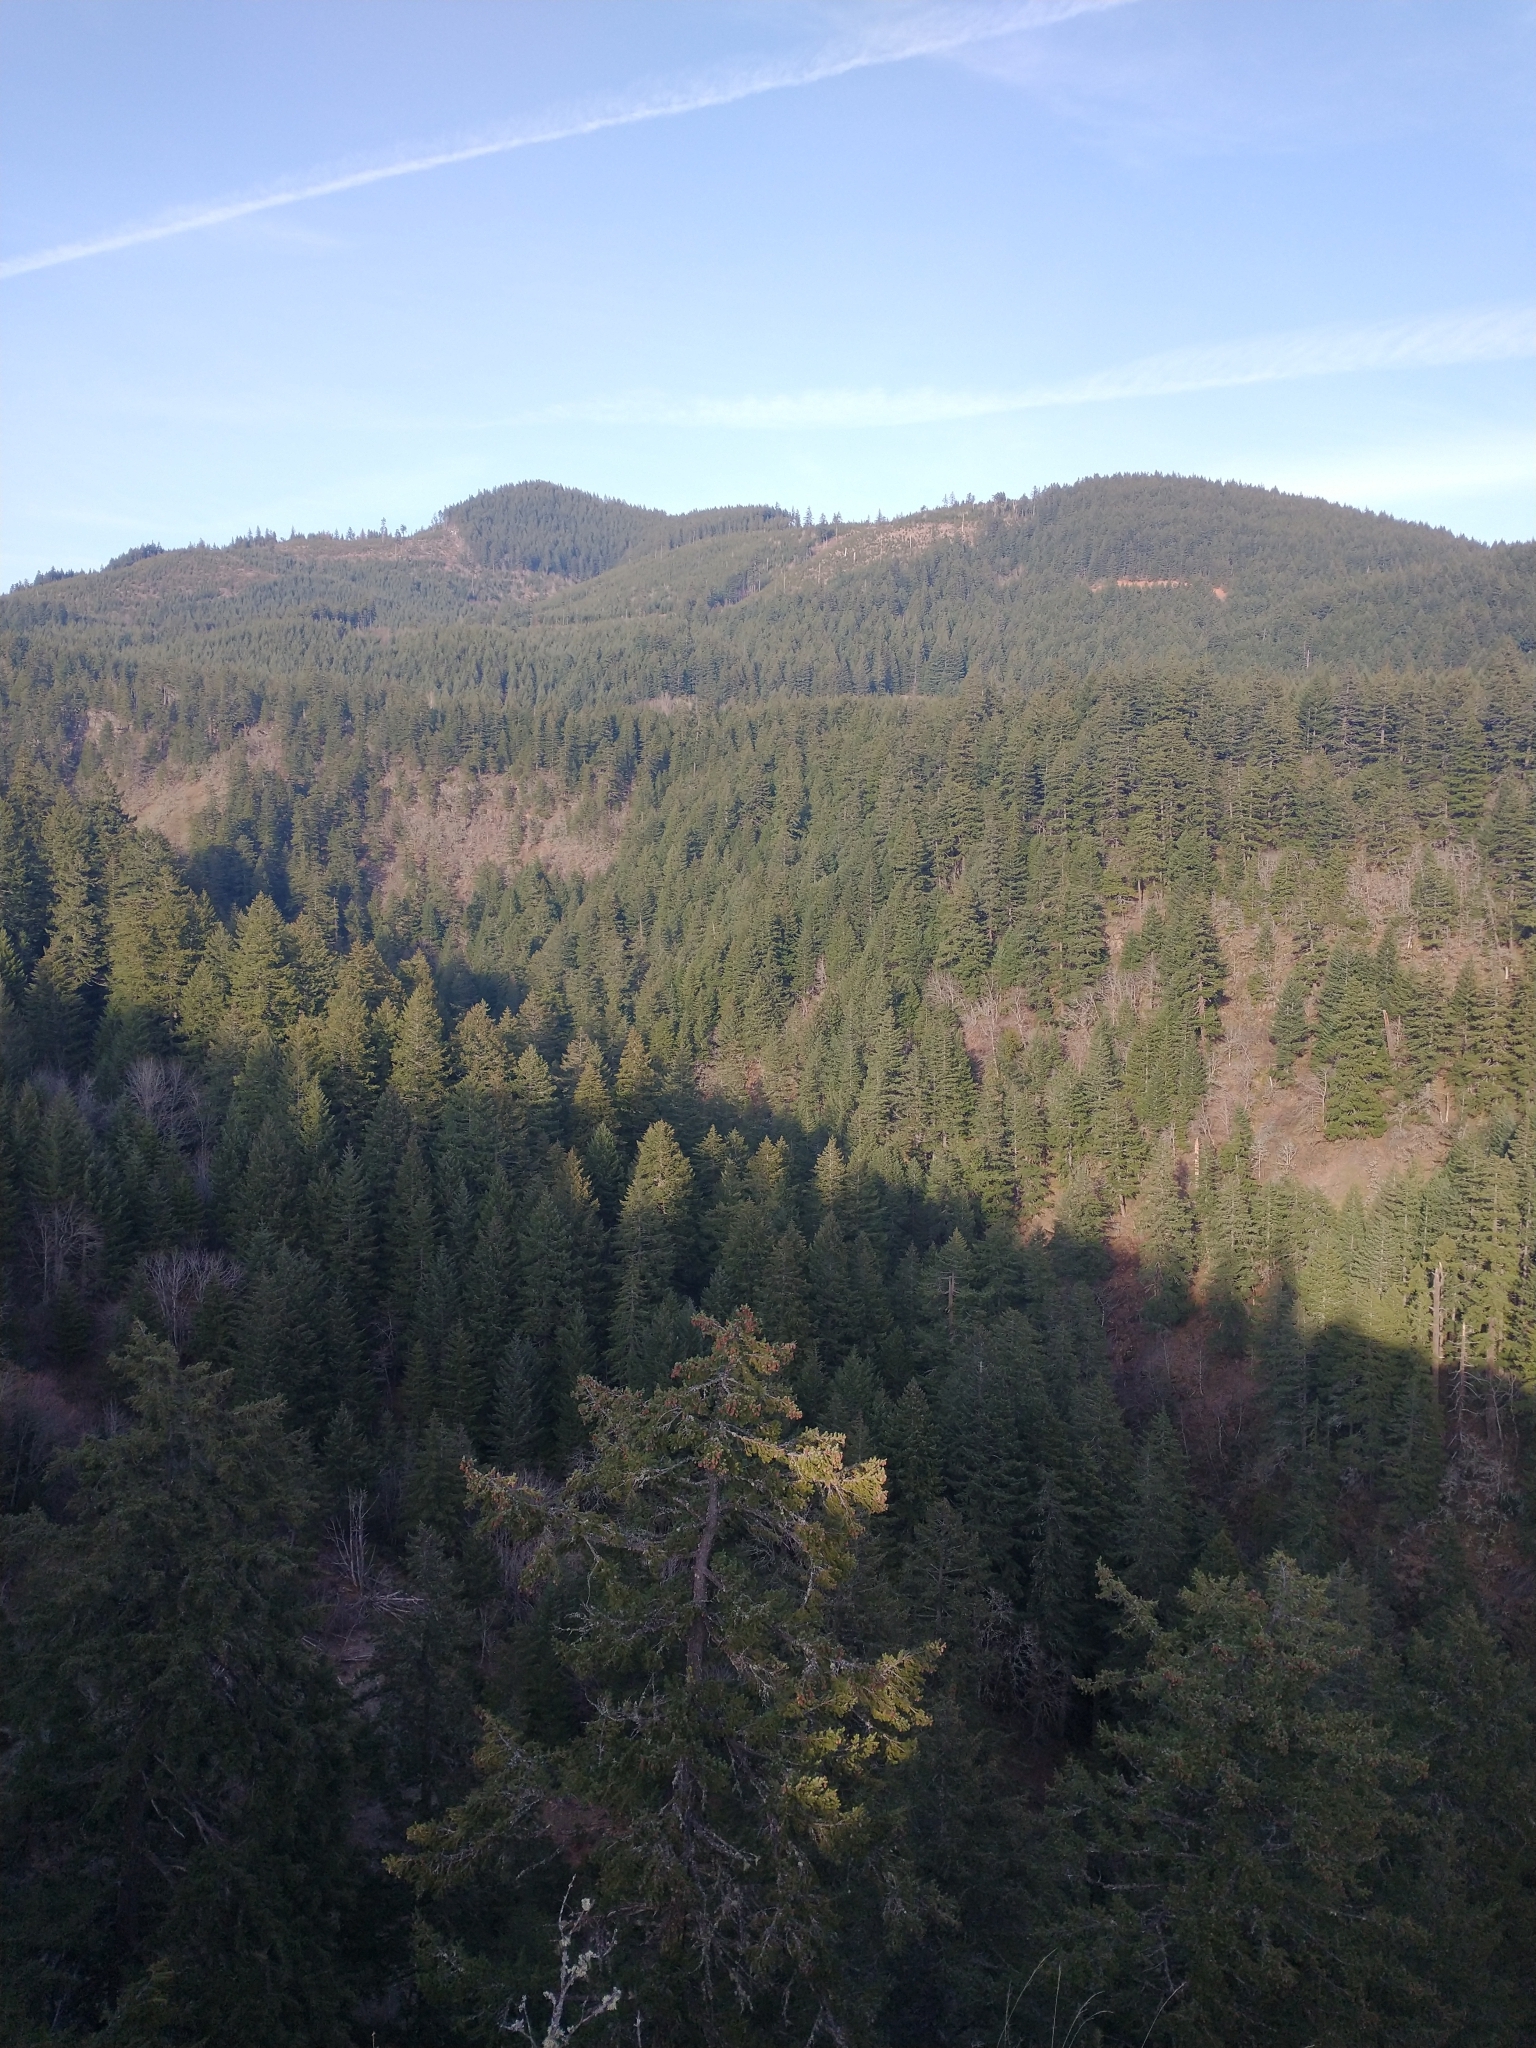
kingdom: Plantae
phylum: Tracheophyta
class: Pinopsida
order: Pinales
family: Pinaceae
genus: Pseudotsuga
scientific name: Pseudotsuga menziesii
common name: Douglas fir
